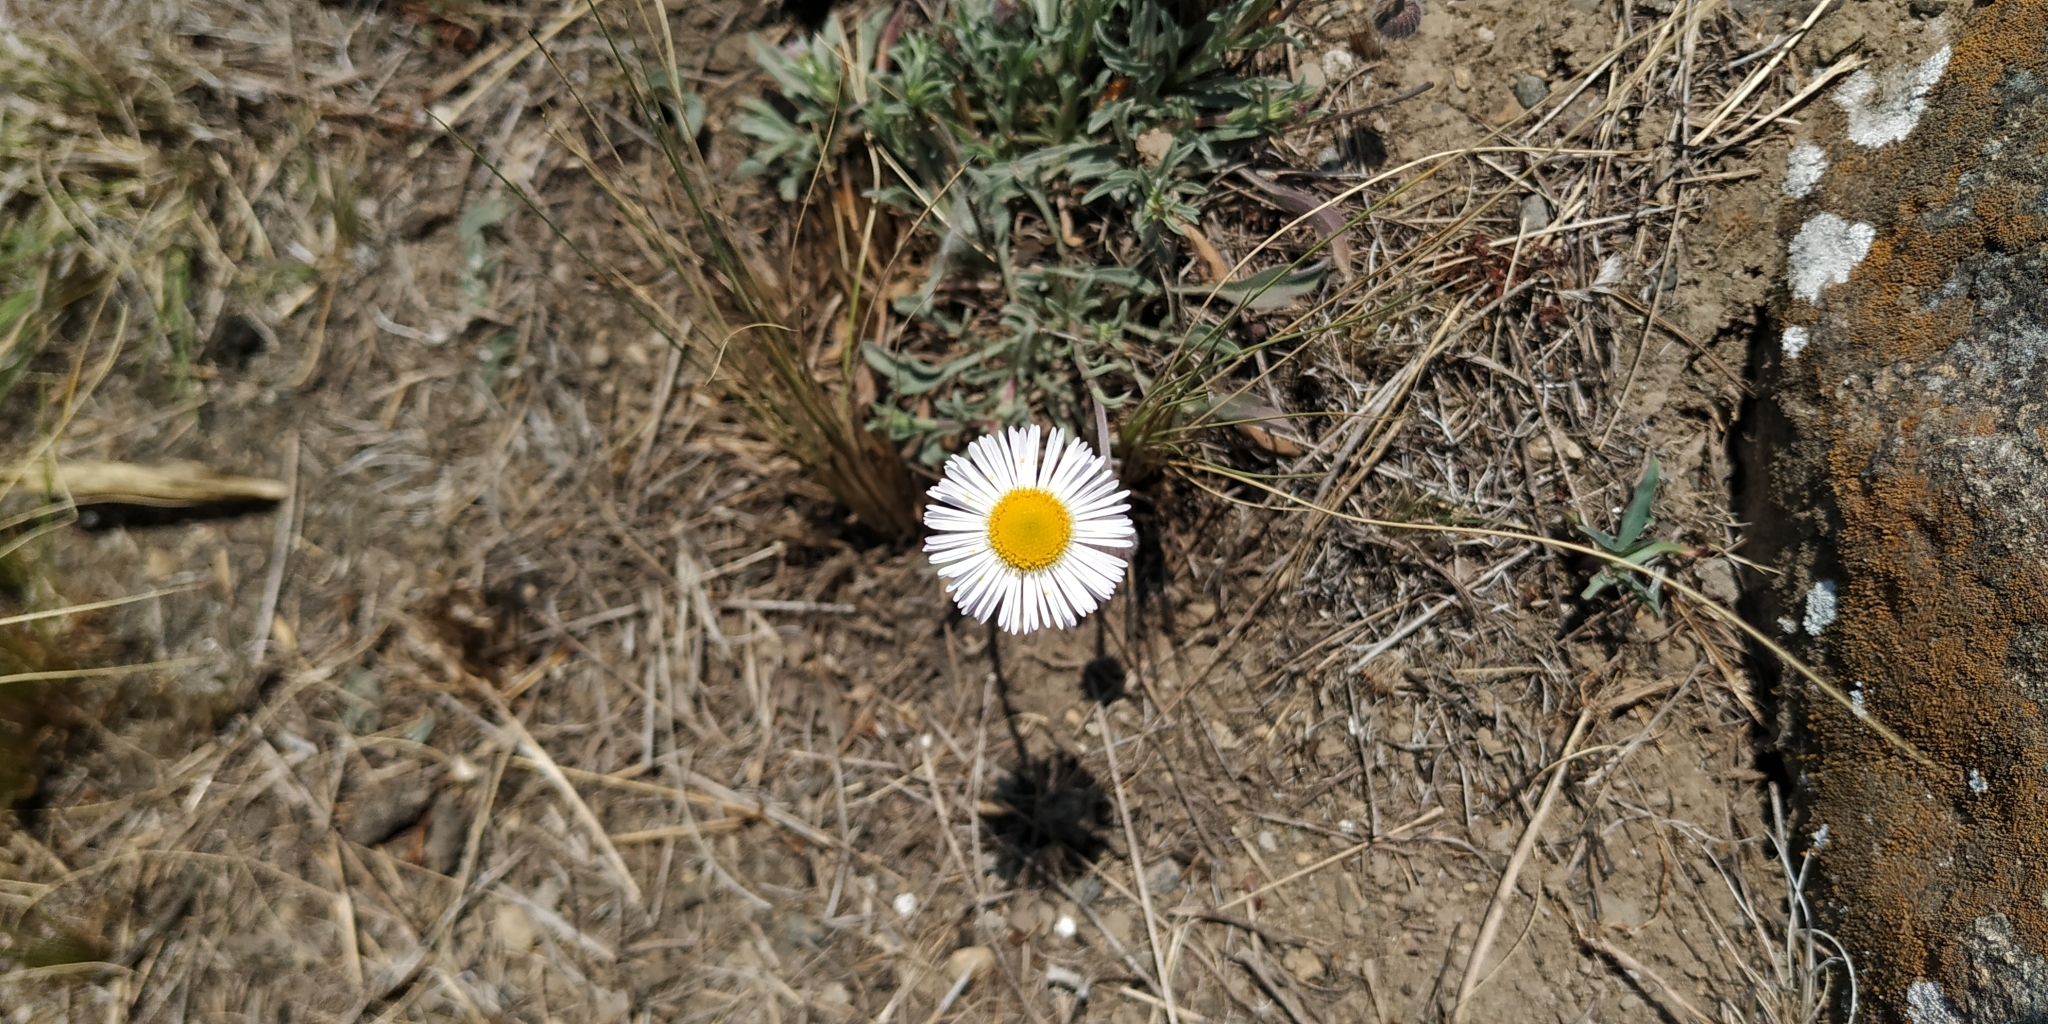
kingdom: Plantae
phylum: Tracheophyta
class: Magnoliopsida
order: Asterales
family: Asteraceae
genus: Aphanostephus
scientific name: Aphanostephus ramosissimus
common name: Plains lazy daisy
